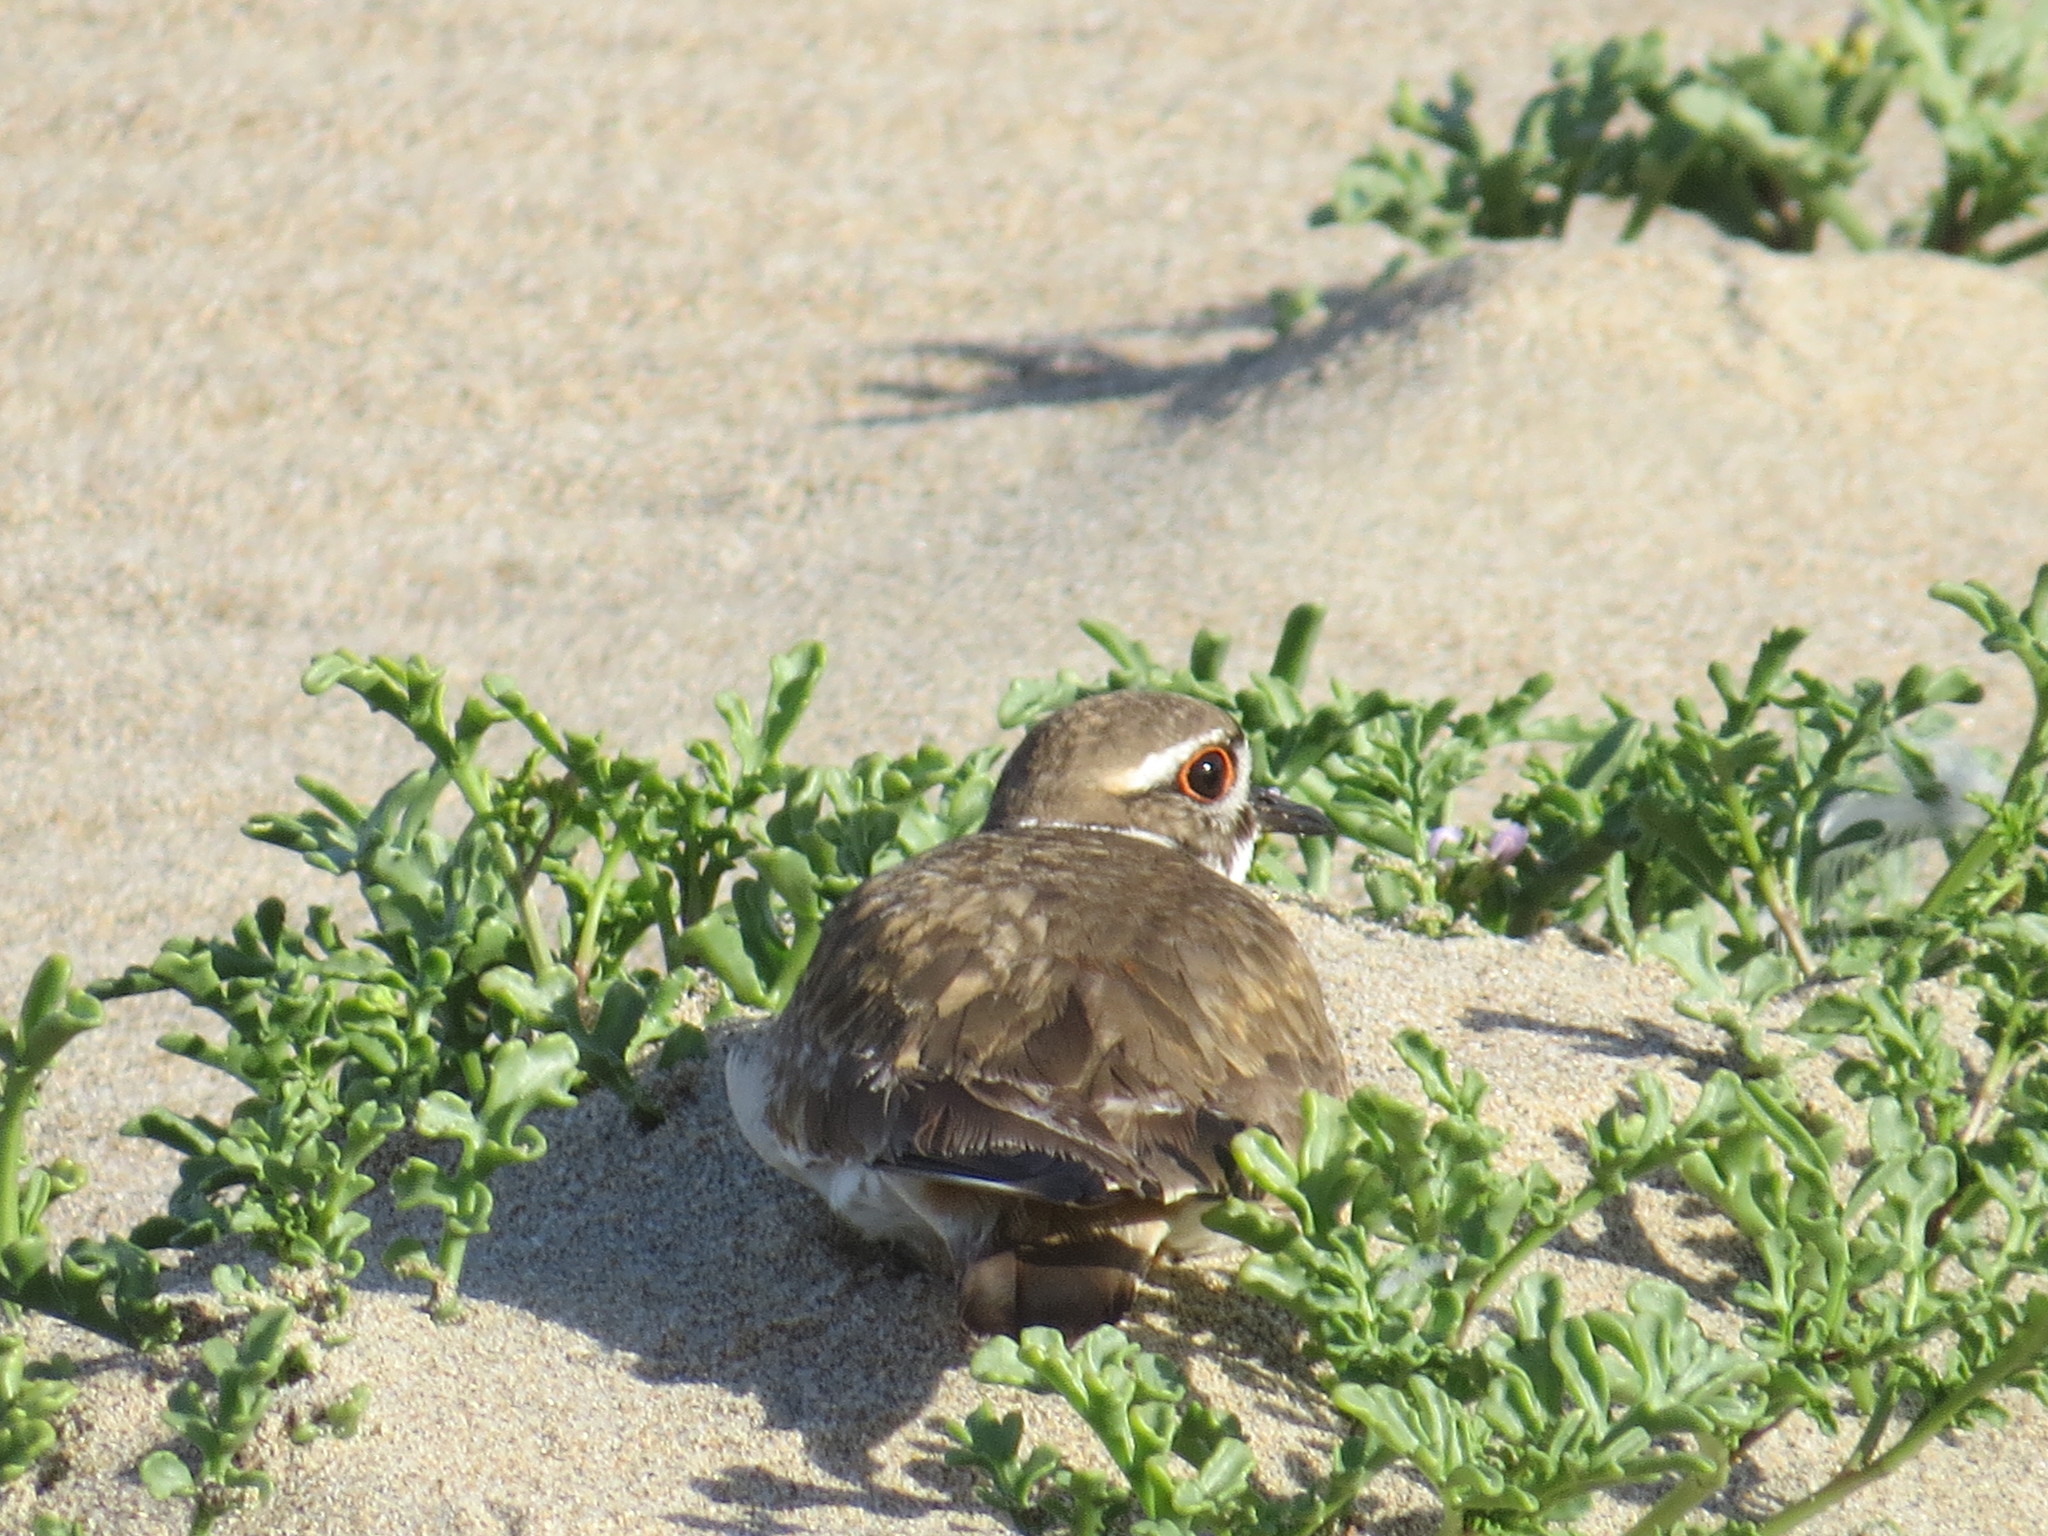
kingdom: Animalia
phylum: Chordata
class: Aves
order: Charadriiformes
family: Charadriidae
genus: Charadrius
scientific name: Charadrius vociferus
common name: Killdeer
